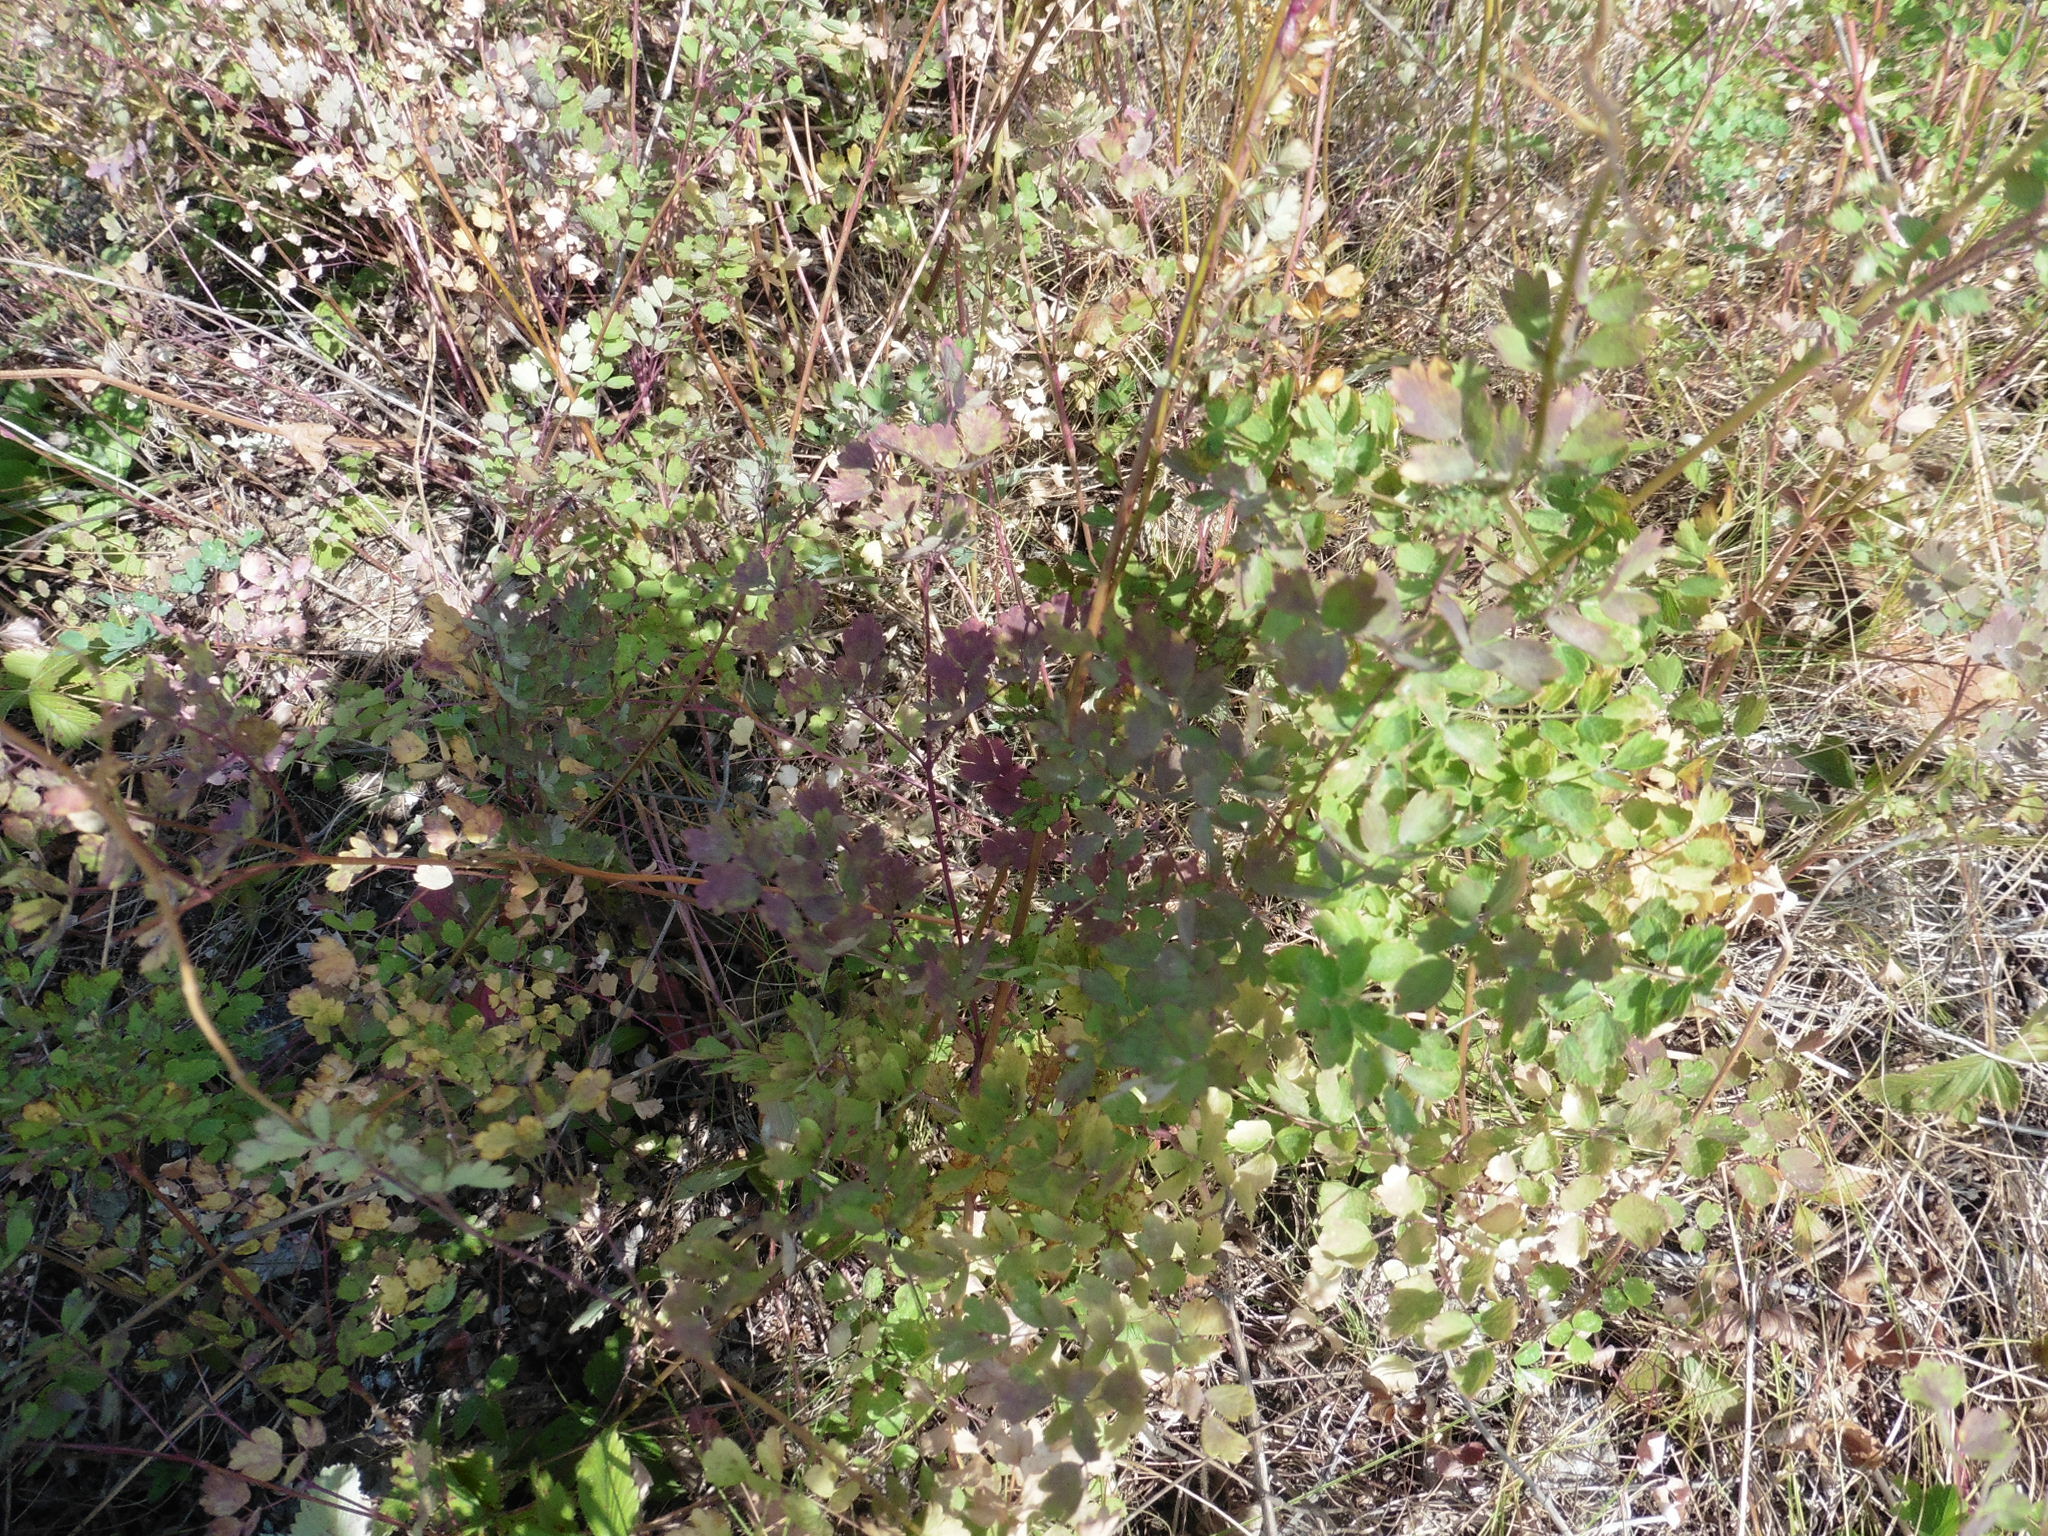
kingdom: Plantae
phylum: Tracheophyta
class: Magnoliopsida
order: Ranunculales
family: Ranunculaceae
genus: Thalictrum
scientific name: Thalictrum minus
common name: Lesser meadow-rue
